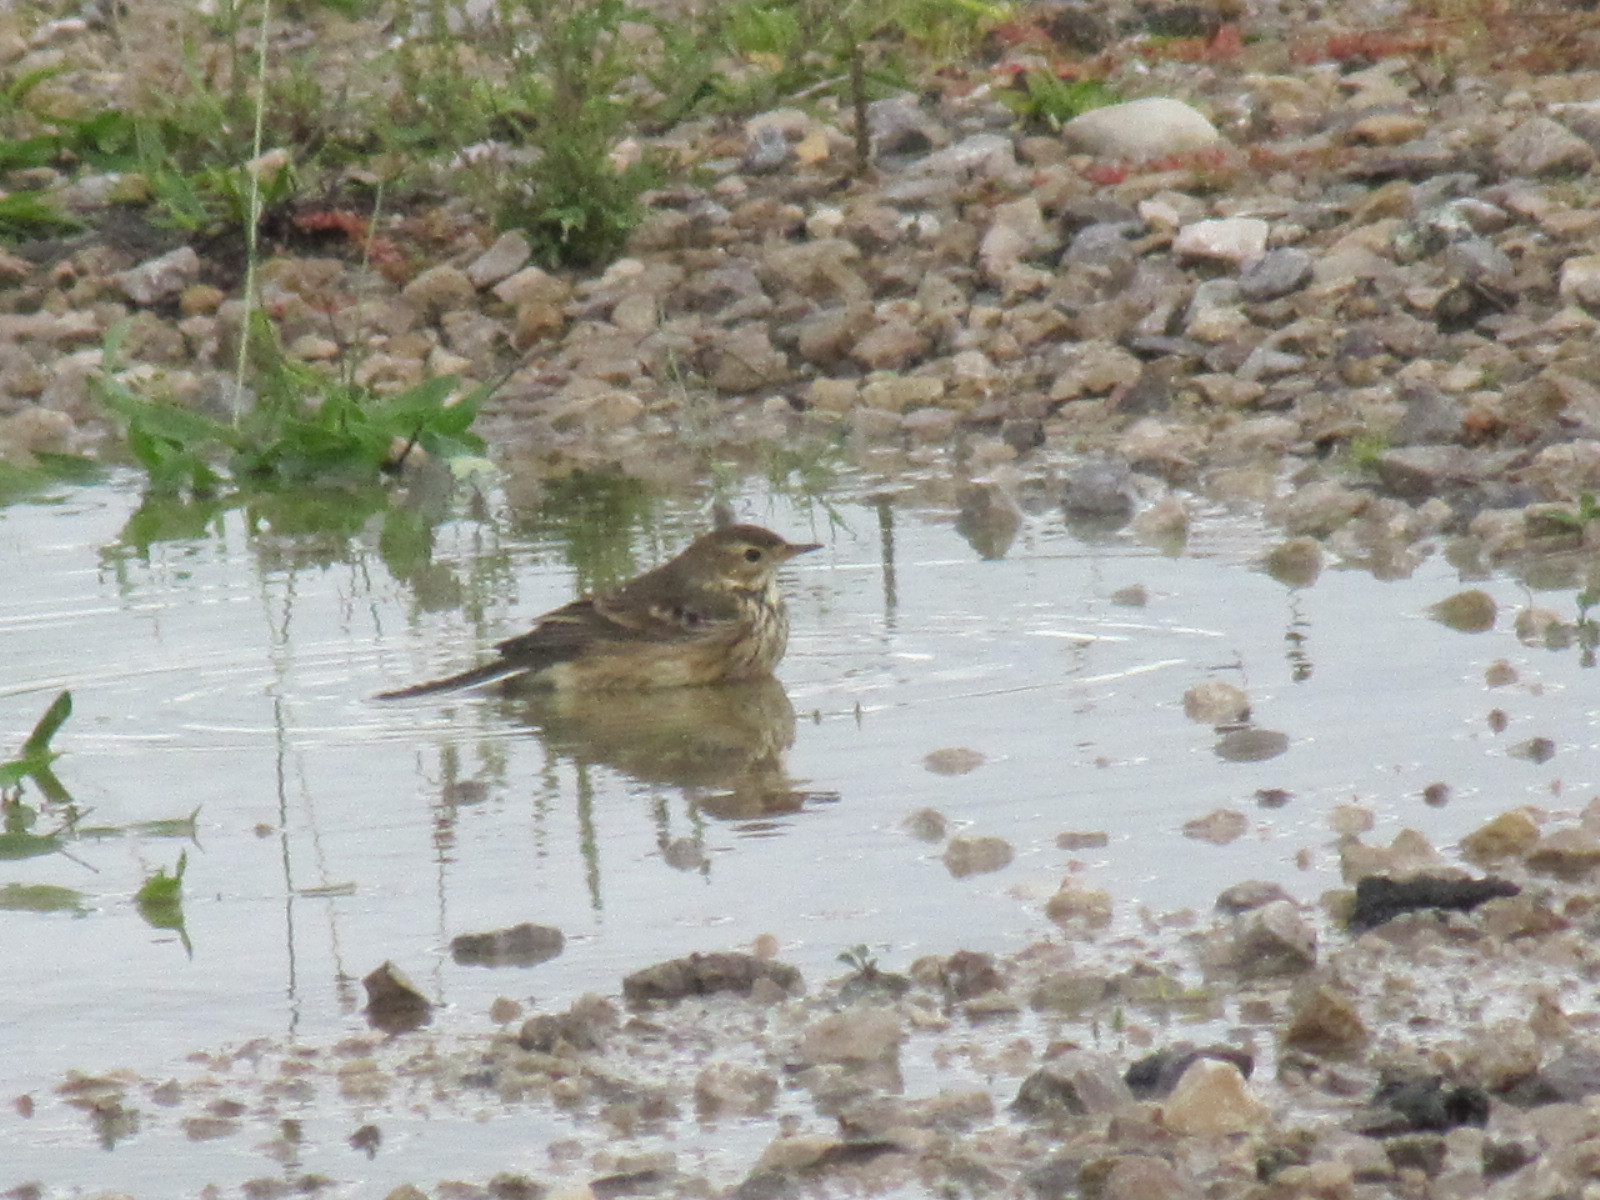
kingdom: Animalia
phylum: Chordata
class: Aves
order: Passeriformes
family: Motacillidae
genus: Anthus
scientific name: Anthus rubescens
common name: Buff-bellied pipit
